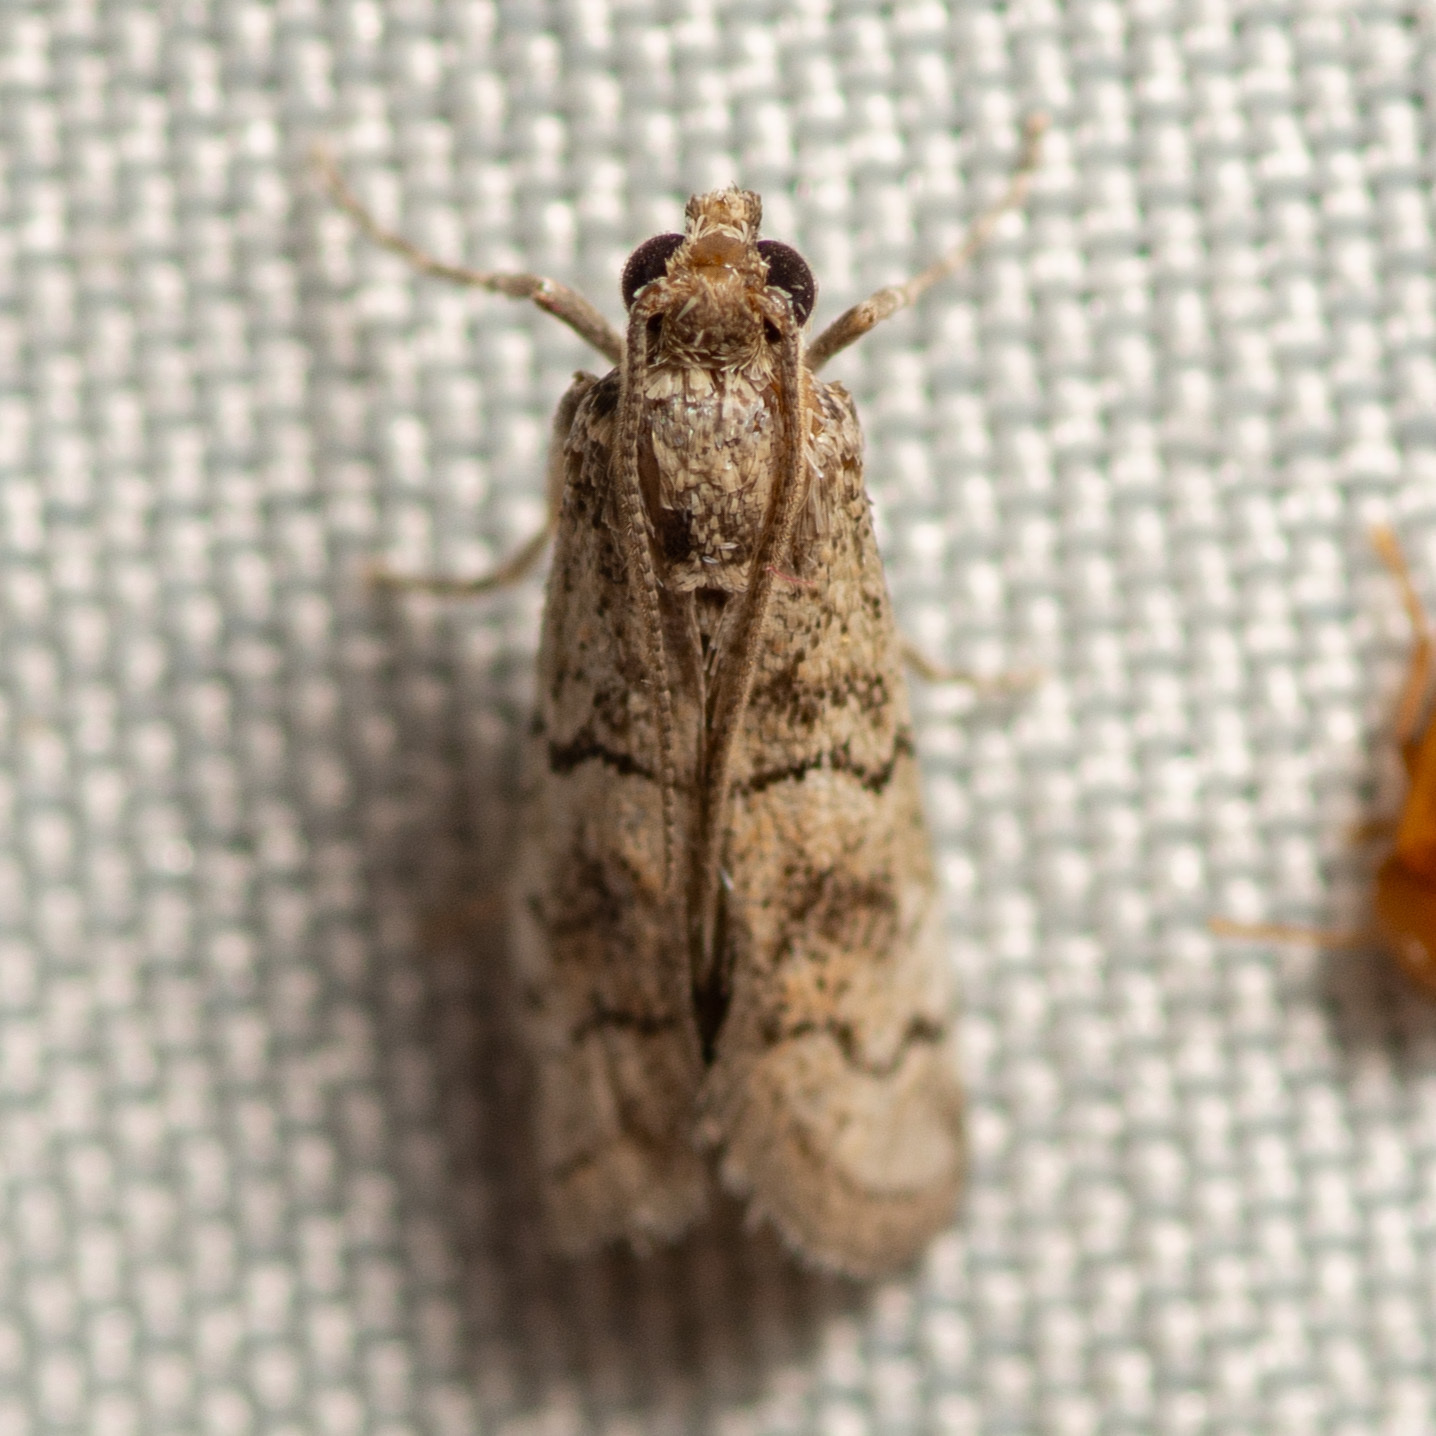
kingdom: Animalia
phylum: Arthropoda
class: Insecta
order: Lepidoptera
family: Pyralidae
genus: Cacotherapia
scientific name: Cacotherapia flexilinealis
